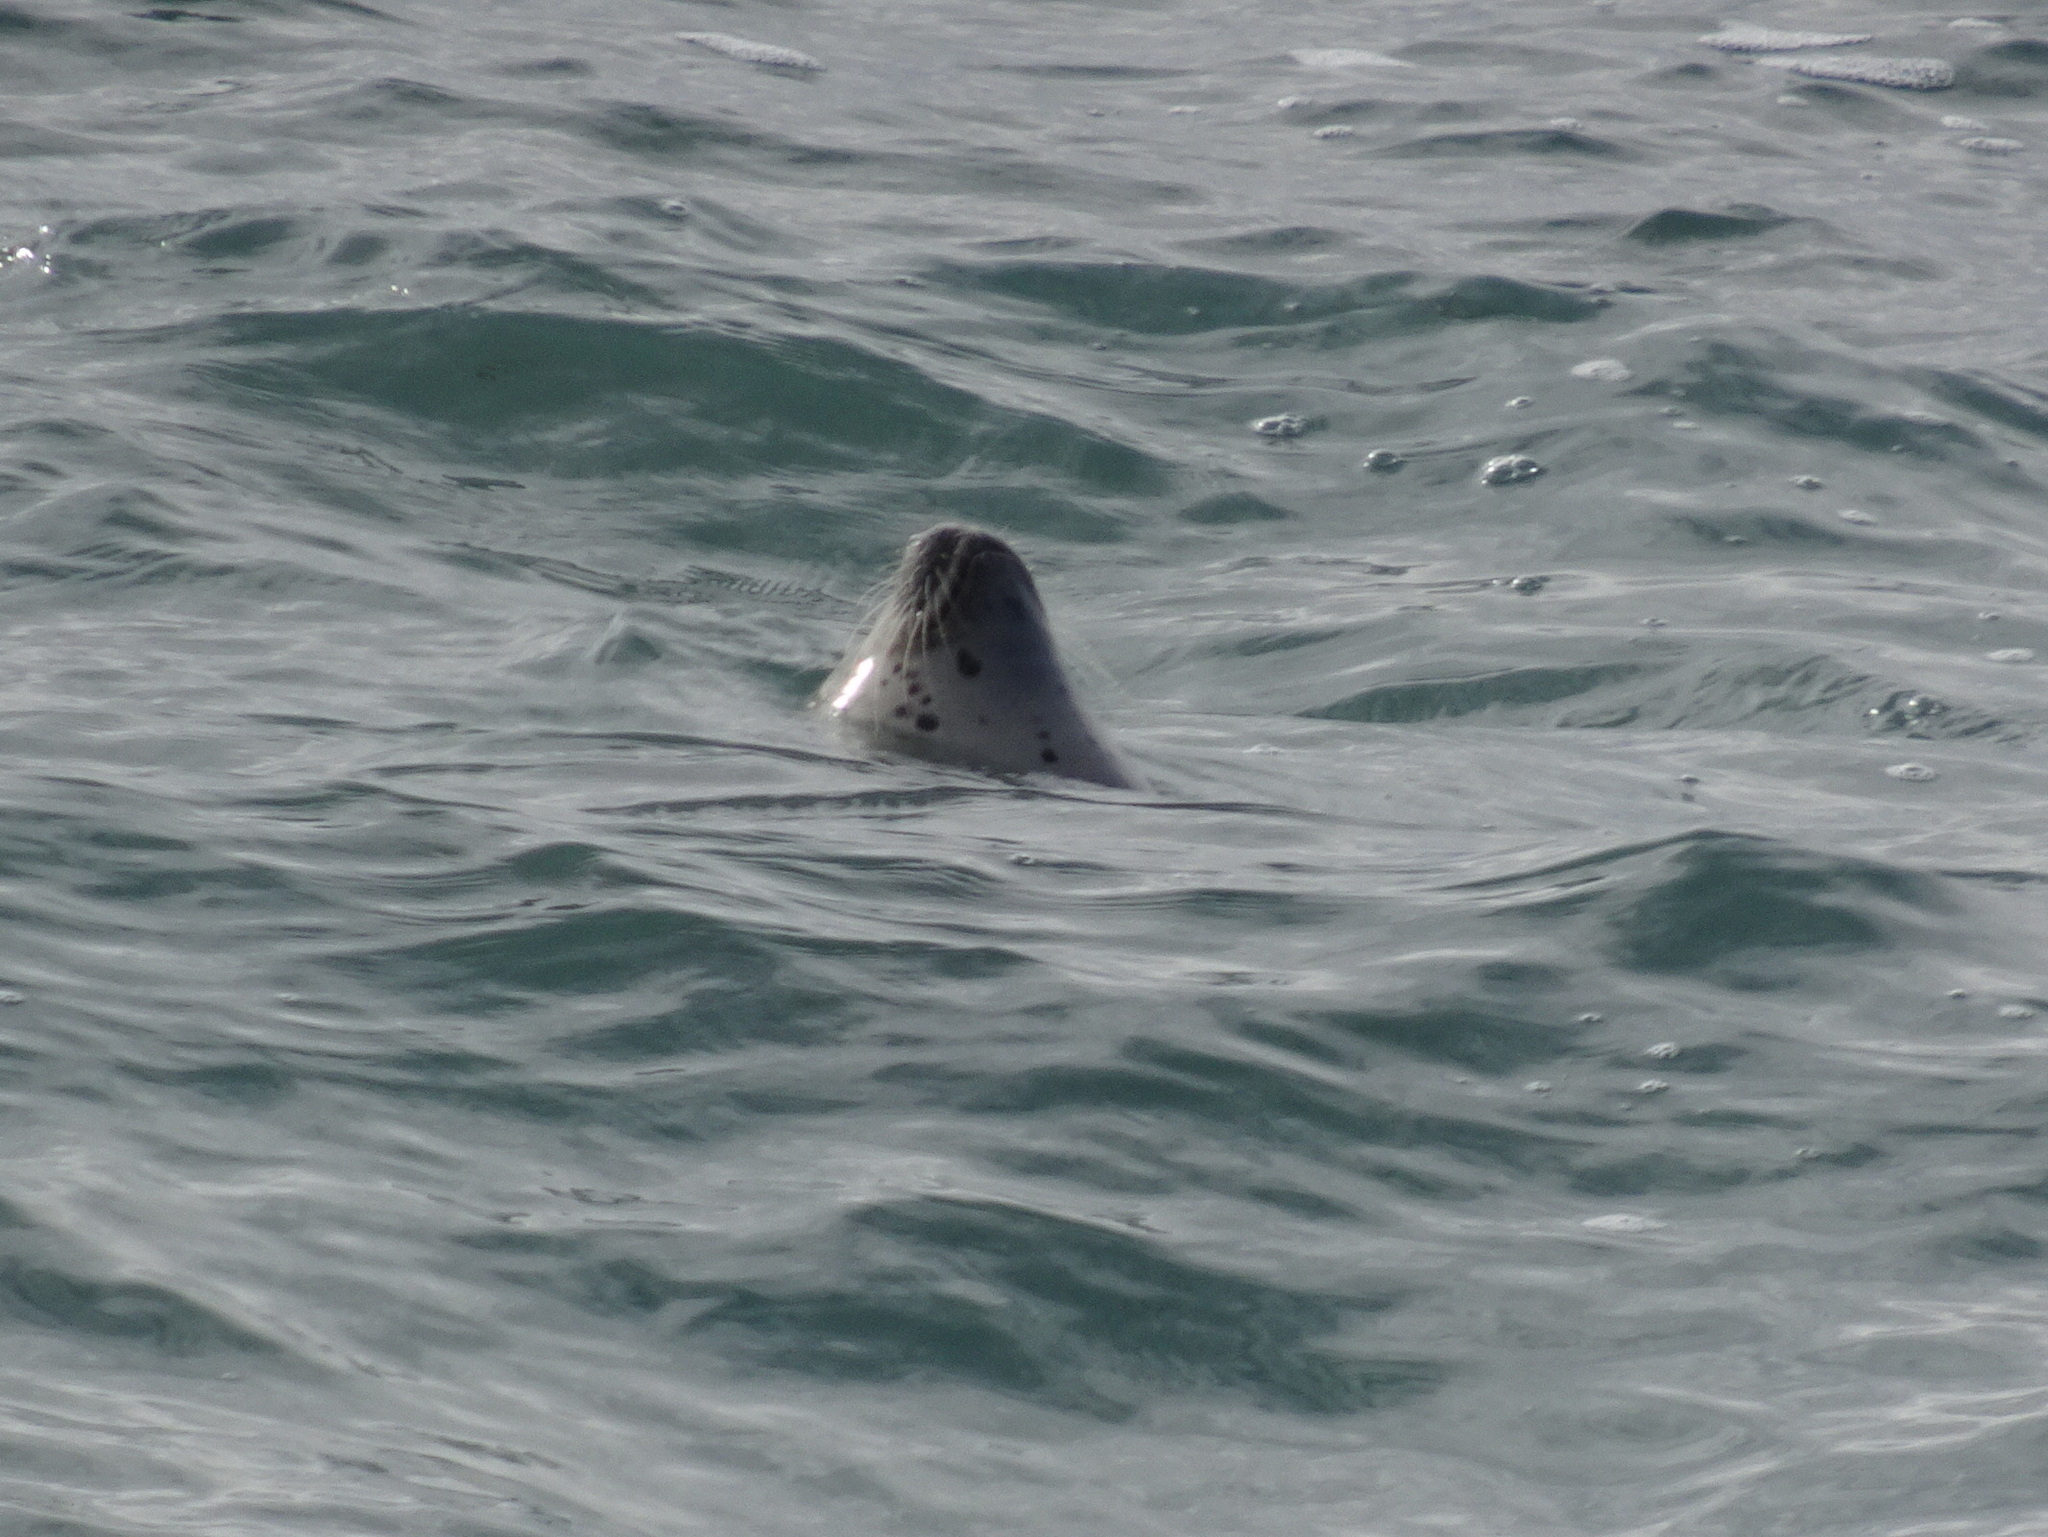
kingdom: Animalia
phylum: Chordata
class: Mammalia
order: Carnivora
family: Phocidae
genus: Phoca
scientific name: Phoca vitulina
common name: Harbor seal
